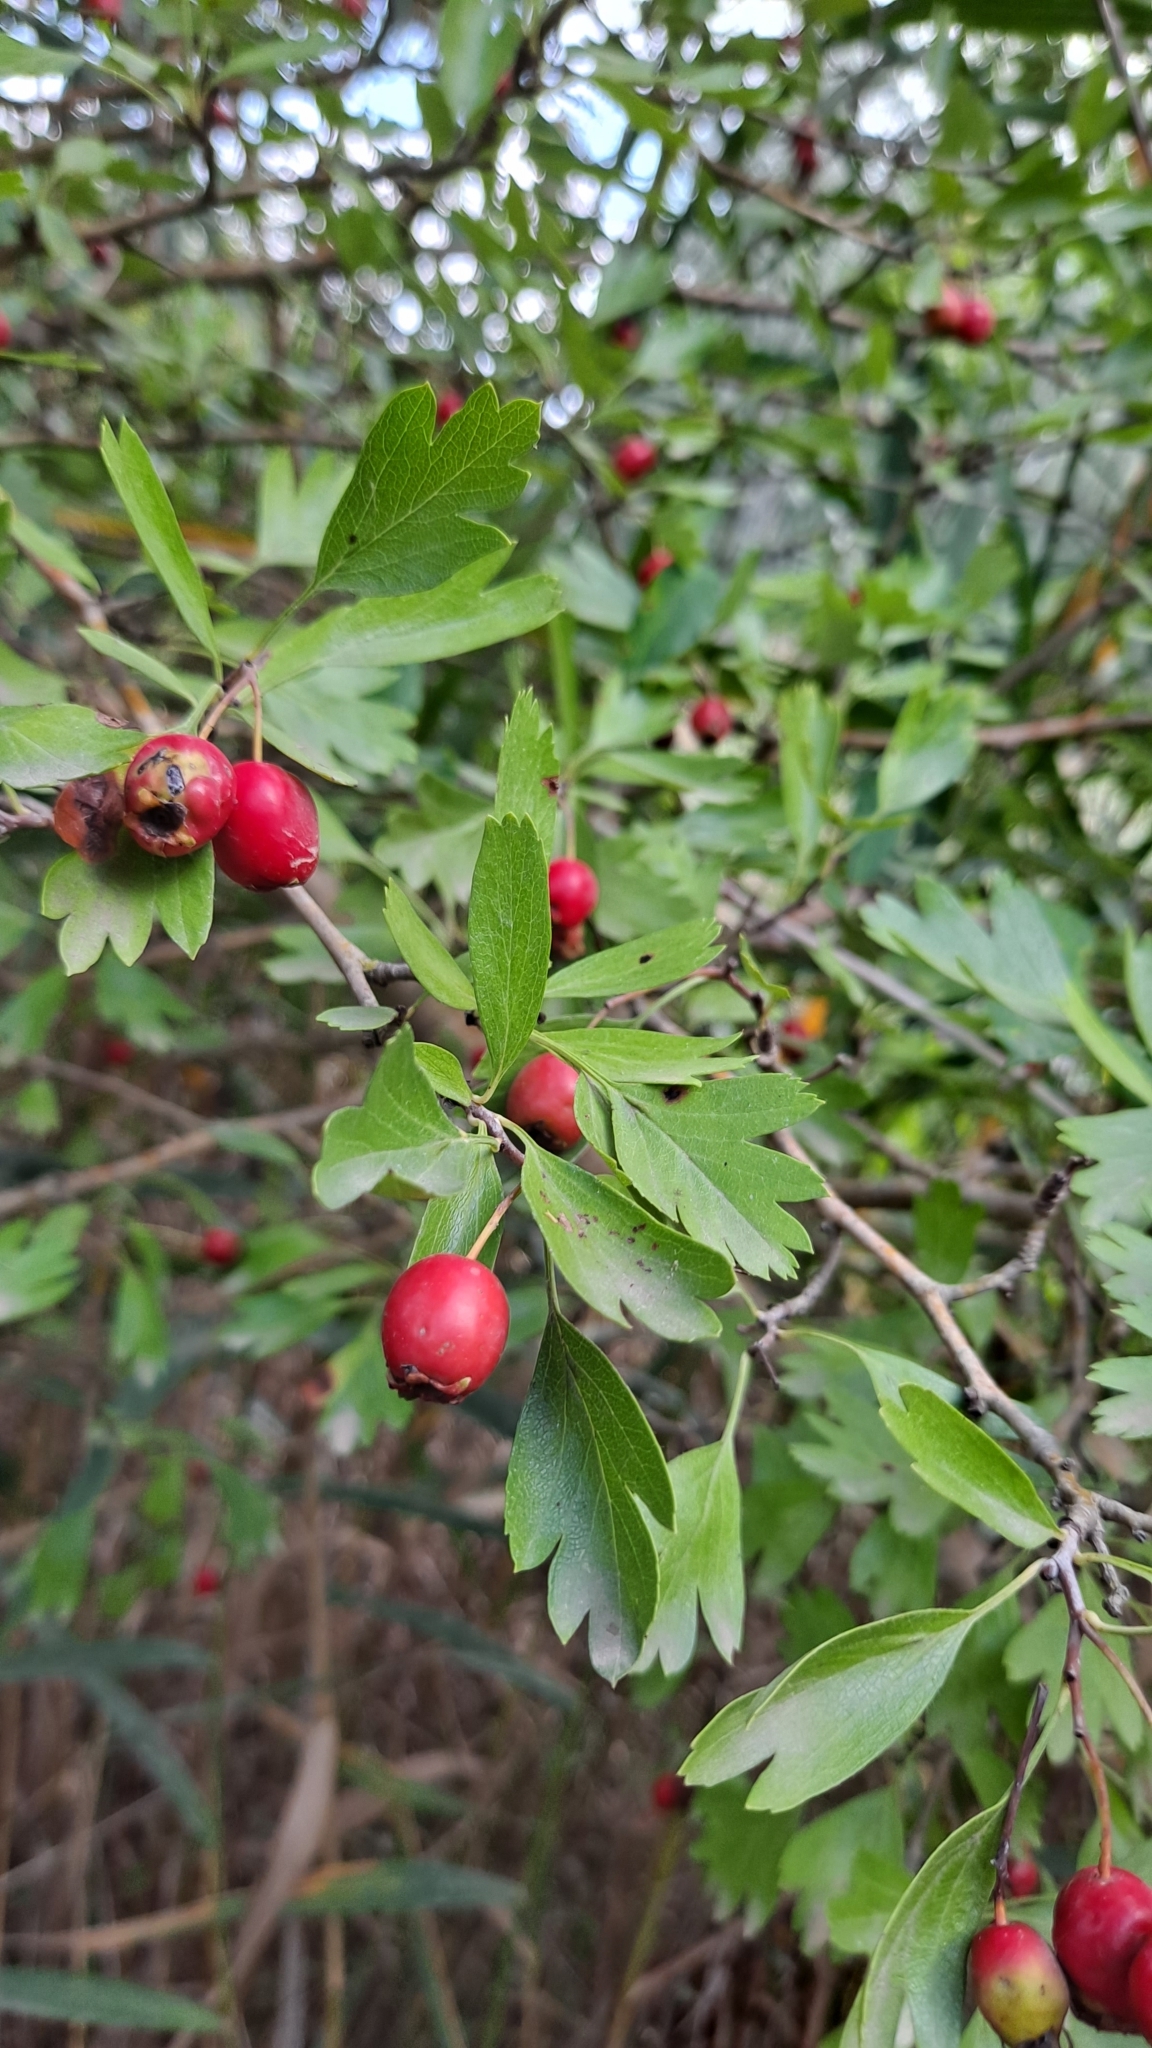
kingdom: Plantae
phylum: Tracheophyta
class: Magnoliopsida
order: Rosales
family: Rosaceae
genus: Crataegus
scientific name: Crataegus monogyna
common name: Hawthorn
